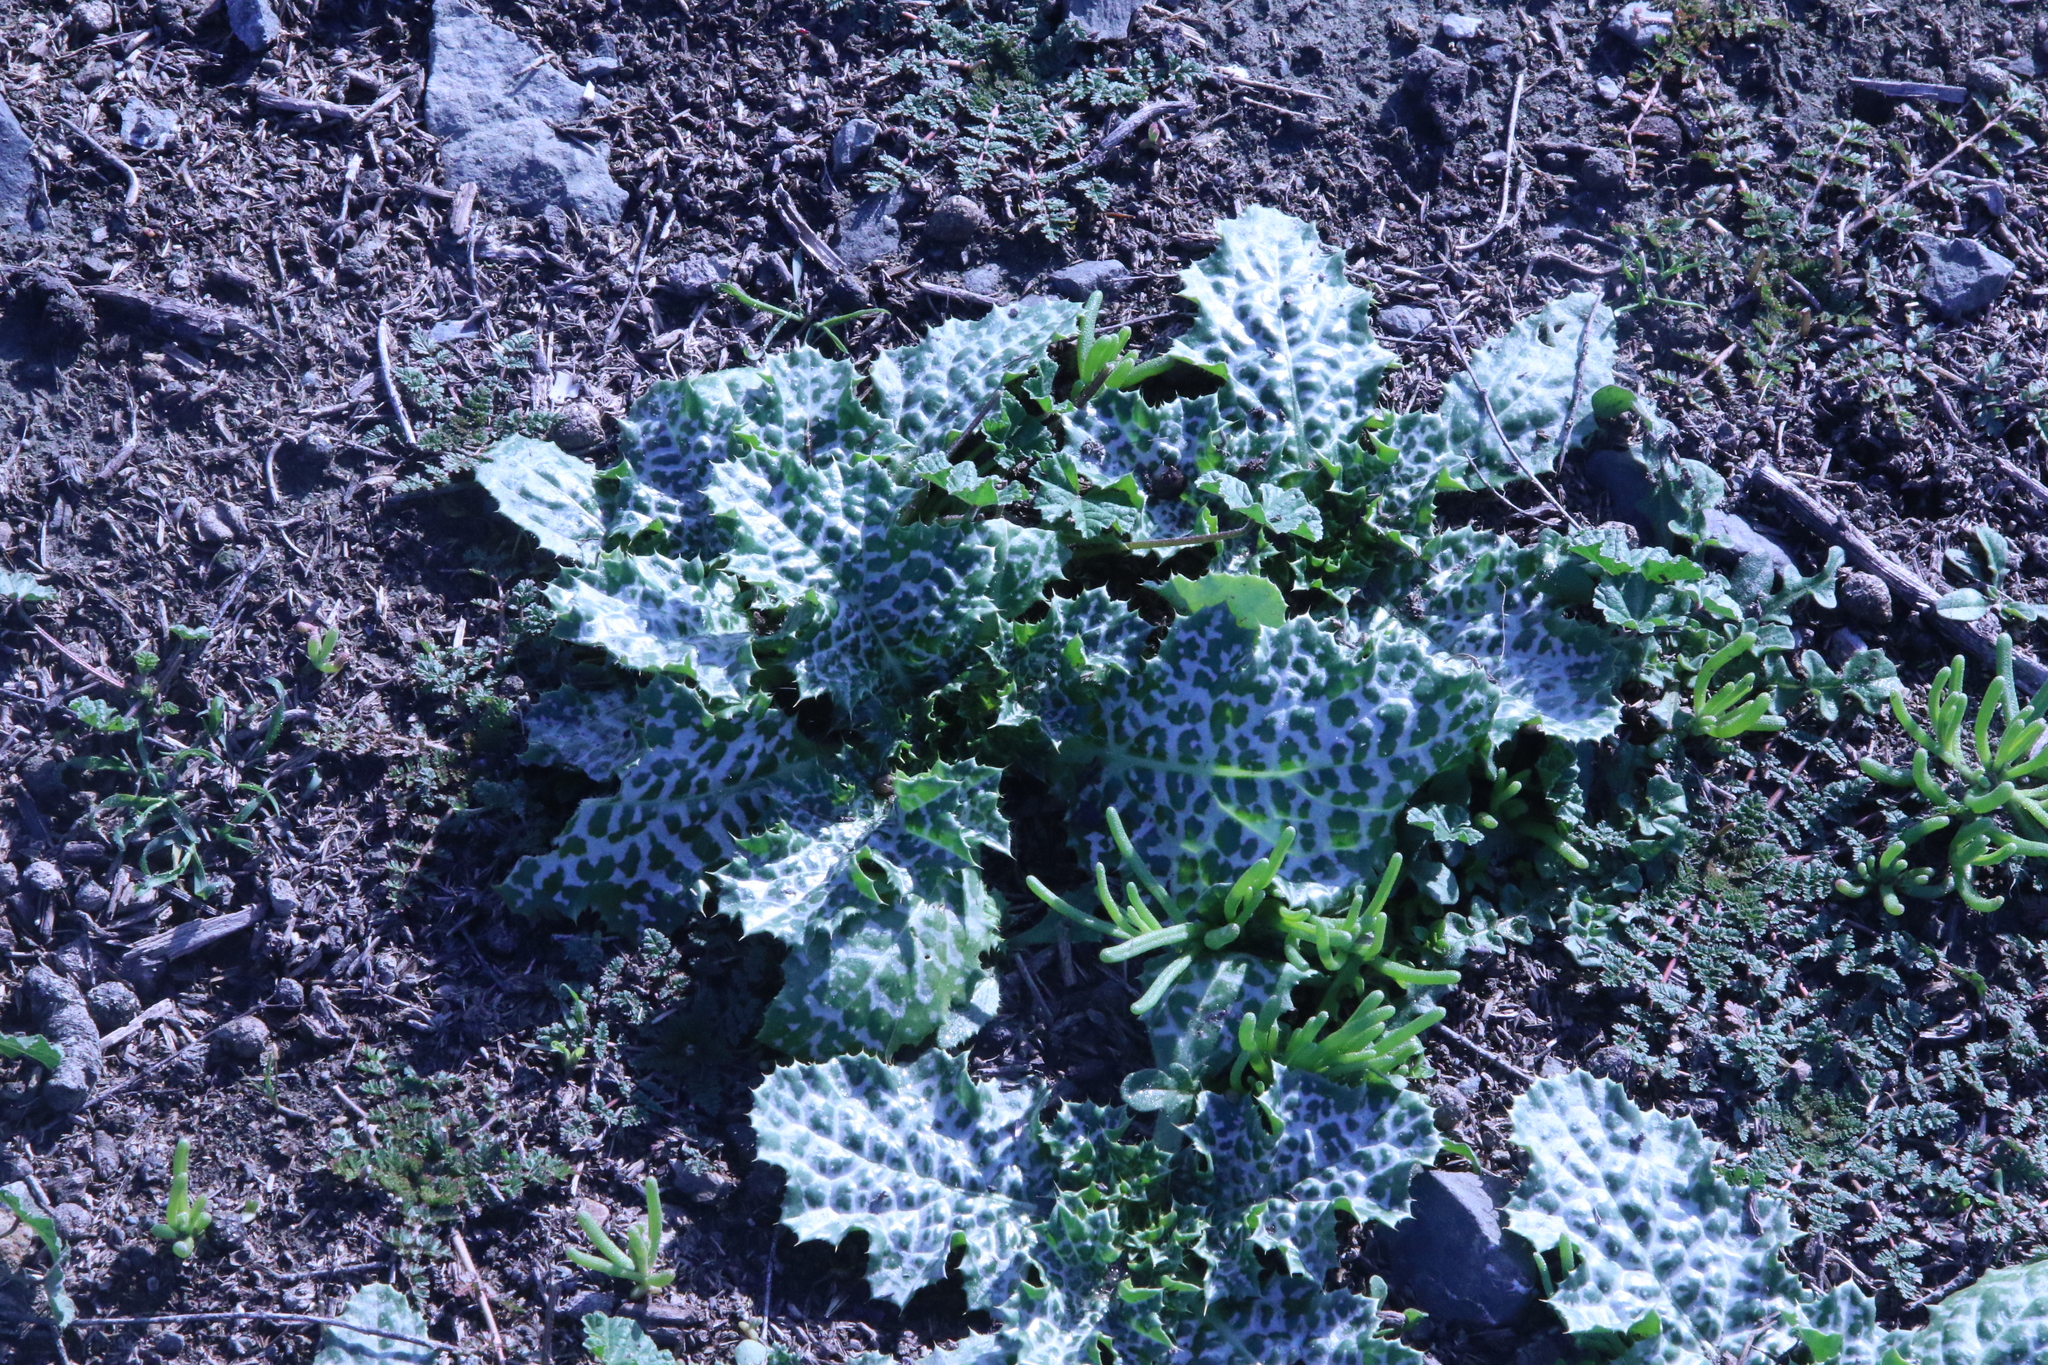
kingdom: Plantae
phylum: Tracheophyta
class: Magnoliopsida
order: Asterales
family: Asteraceae
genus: Silybum
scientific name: Silybum marianum
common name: Milk thistle
